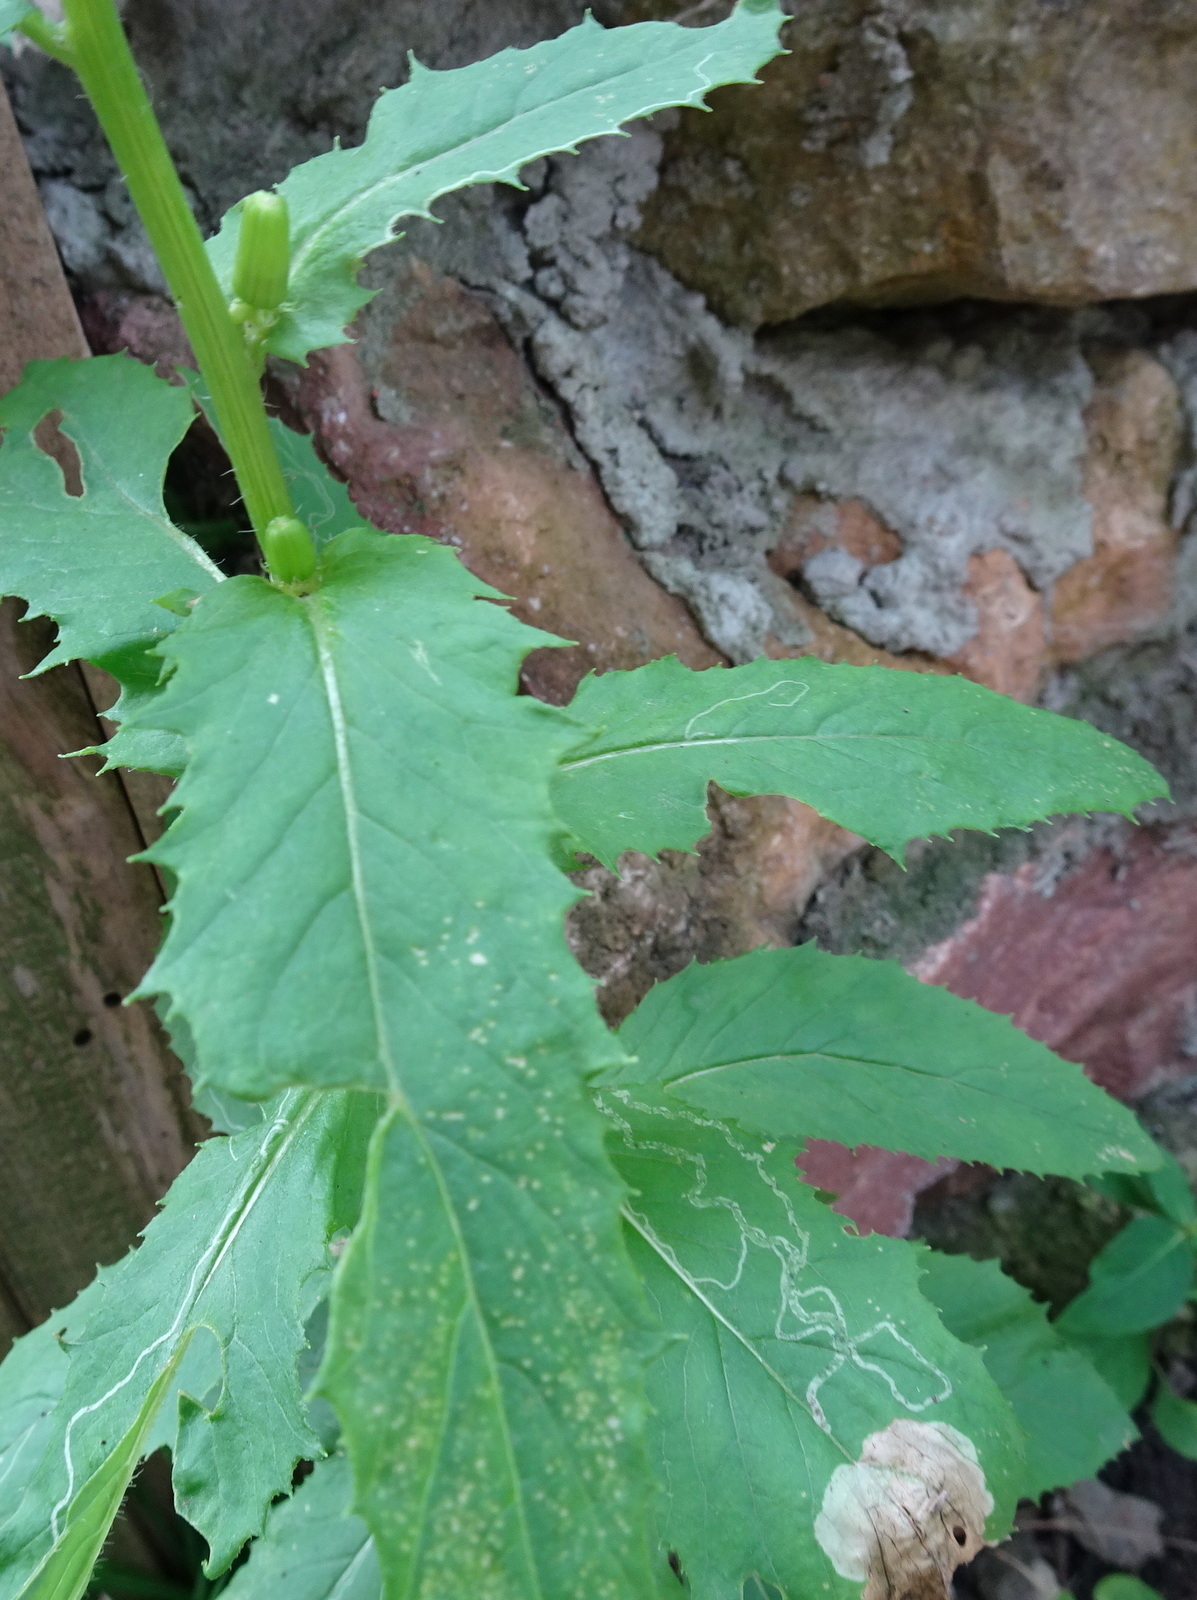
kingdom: Plantae
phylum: Tracheophyta
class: Magnoliopsida
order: Asterales
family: Asteraceae
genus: Erechtites
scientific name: Erechtites hieraciifolius
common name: American burnweed
